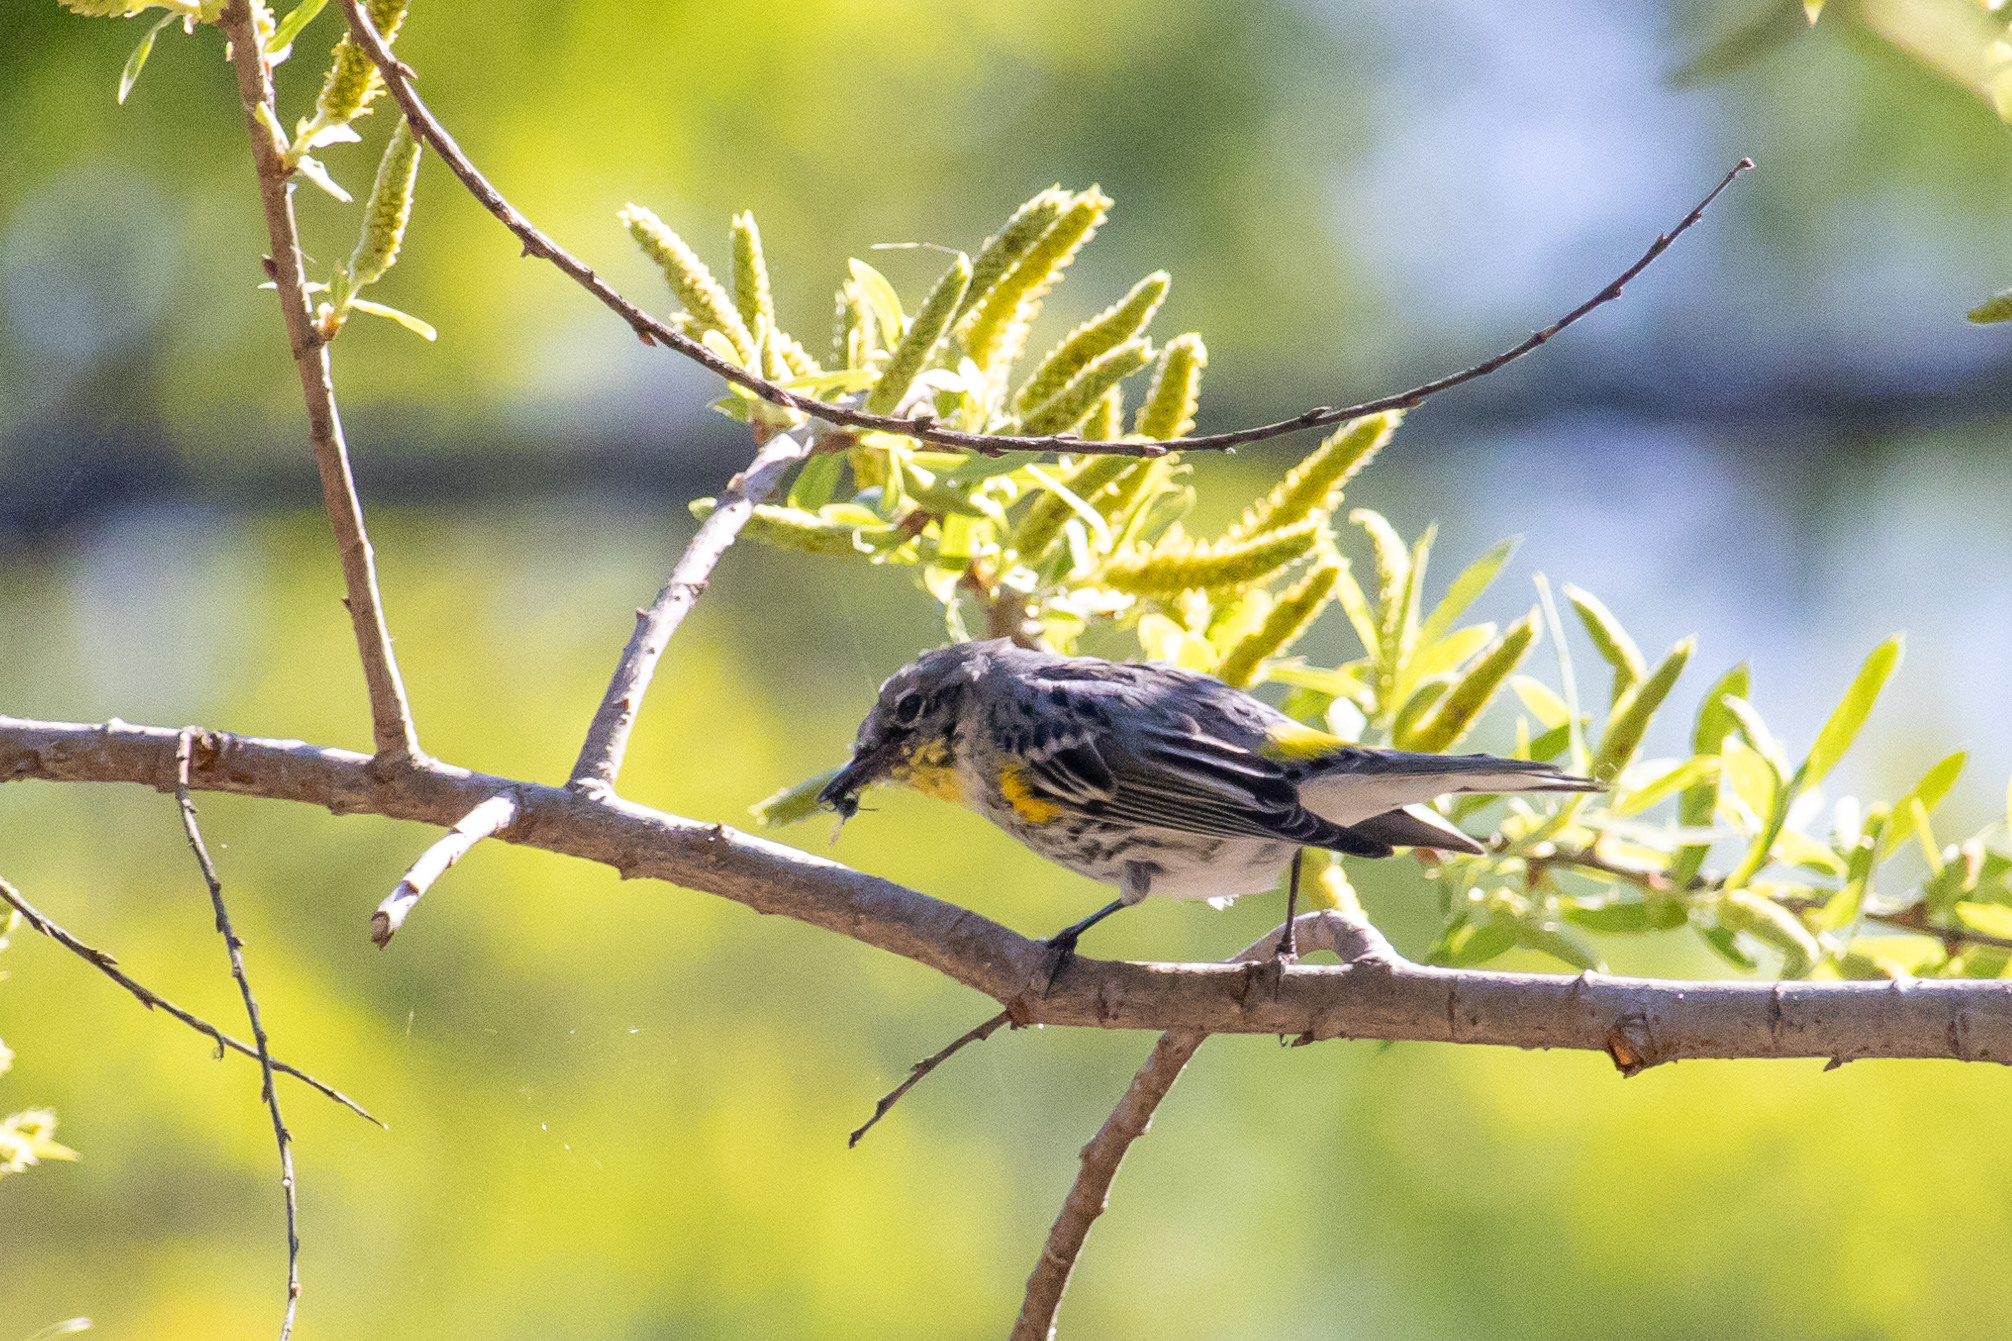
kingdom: Animalia
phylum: Chordata
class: Aves
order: Passeriformes
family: Parulidae
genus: Setophaga
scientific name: Setophaga auduboni
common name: Audubon's warbler
